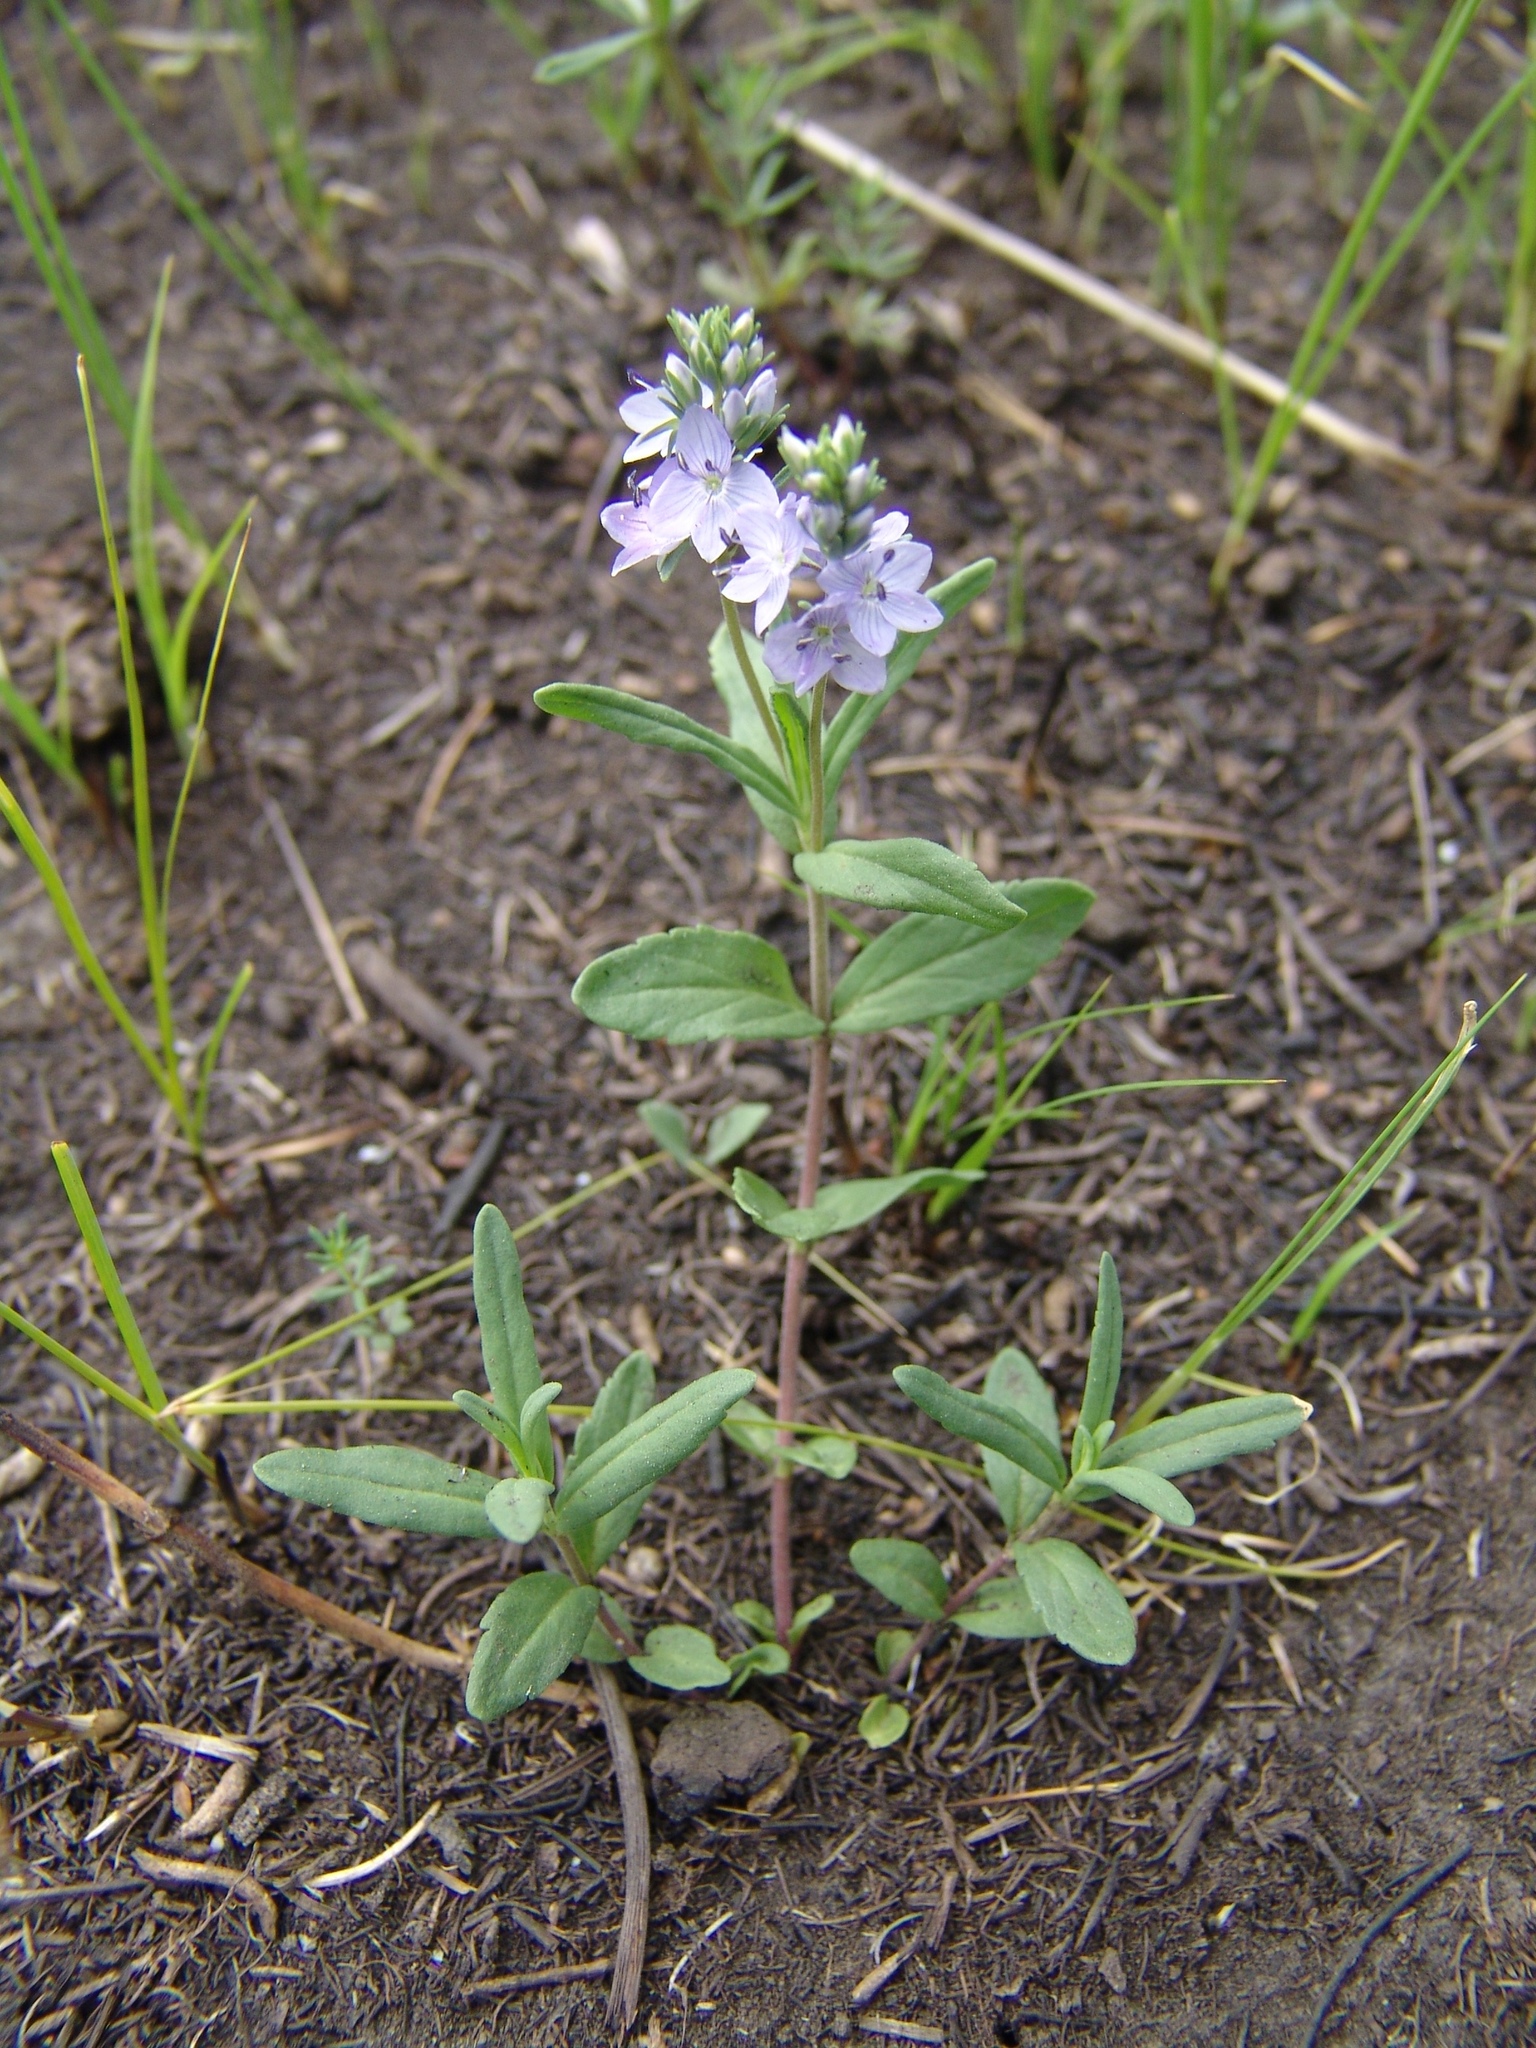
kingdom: Plantae
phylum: Tracheophyta
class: Magnoliopsida
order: Lamiales
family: Plantaginaceae
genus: Veronica
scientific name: Veronica prostrata
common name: Prostrate speedwell
